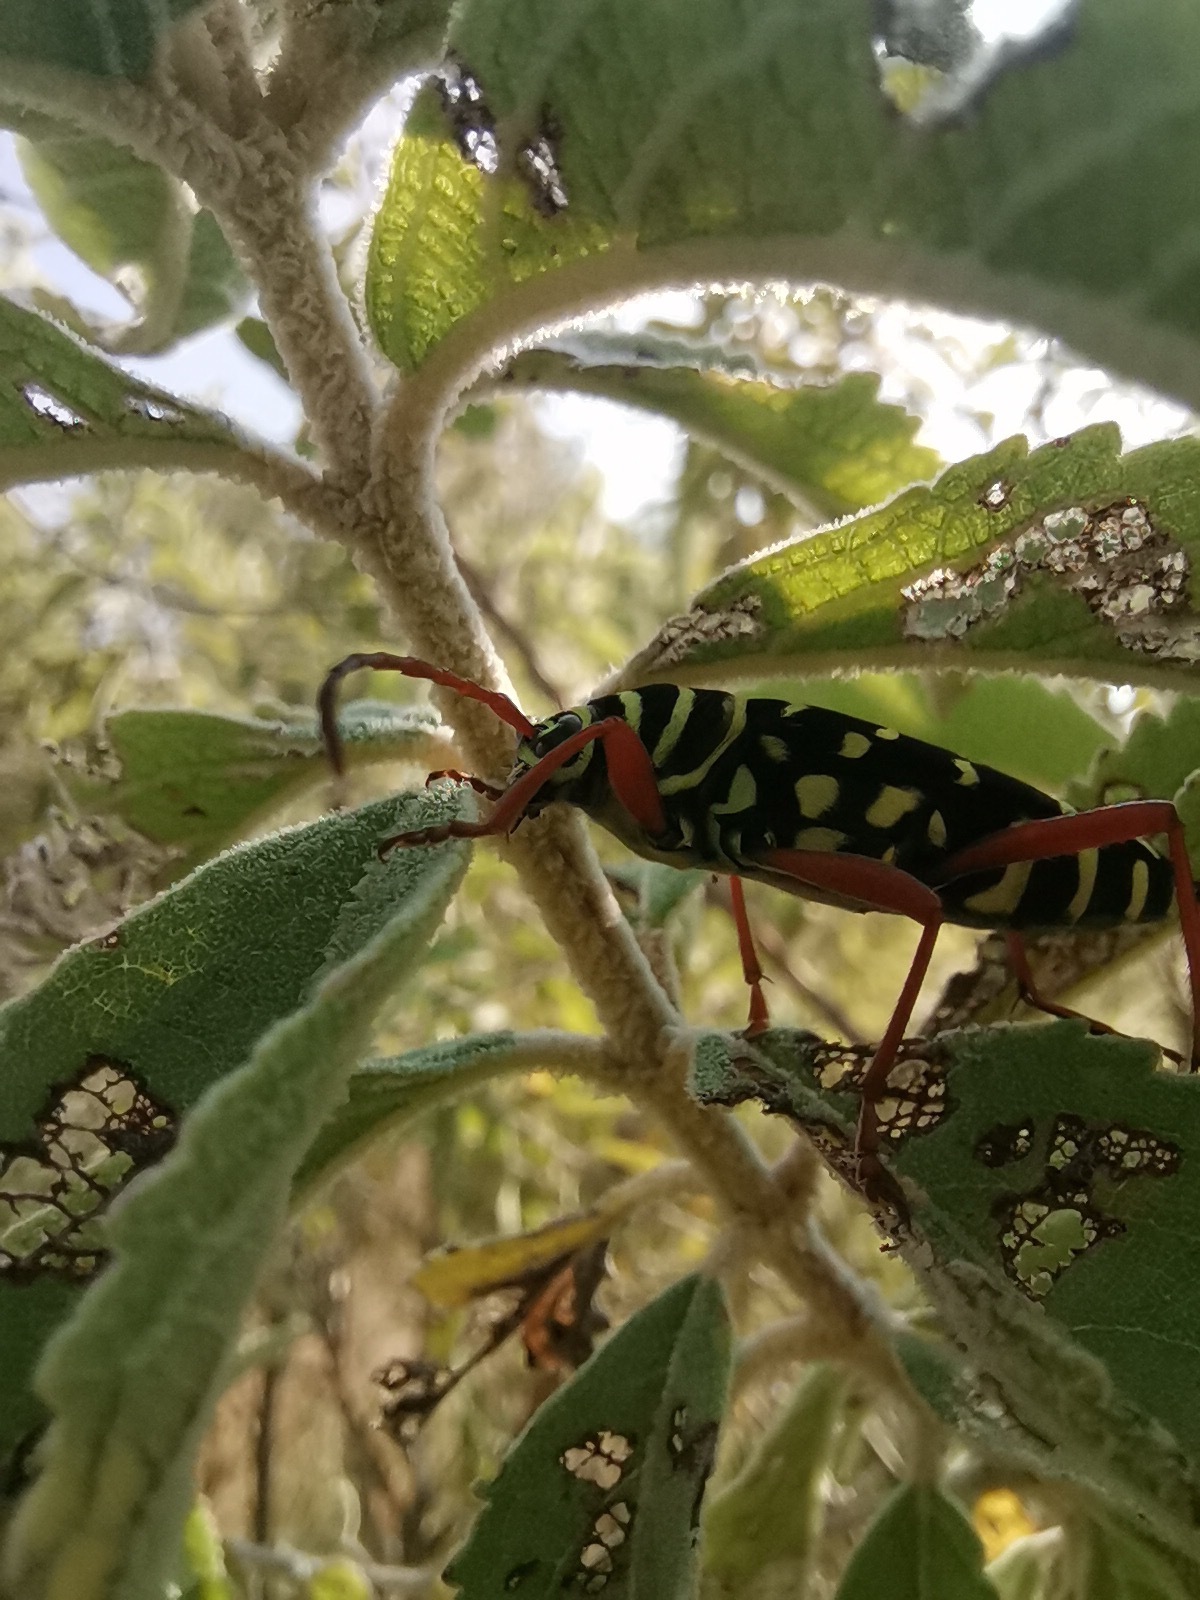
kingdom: Animalia
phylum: Arthropoda
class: Insecta
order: Coleoptera
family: Cerambycidae
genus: Placosternus
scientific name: Placosternus erythropus
